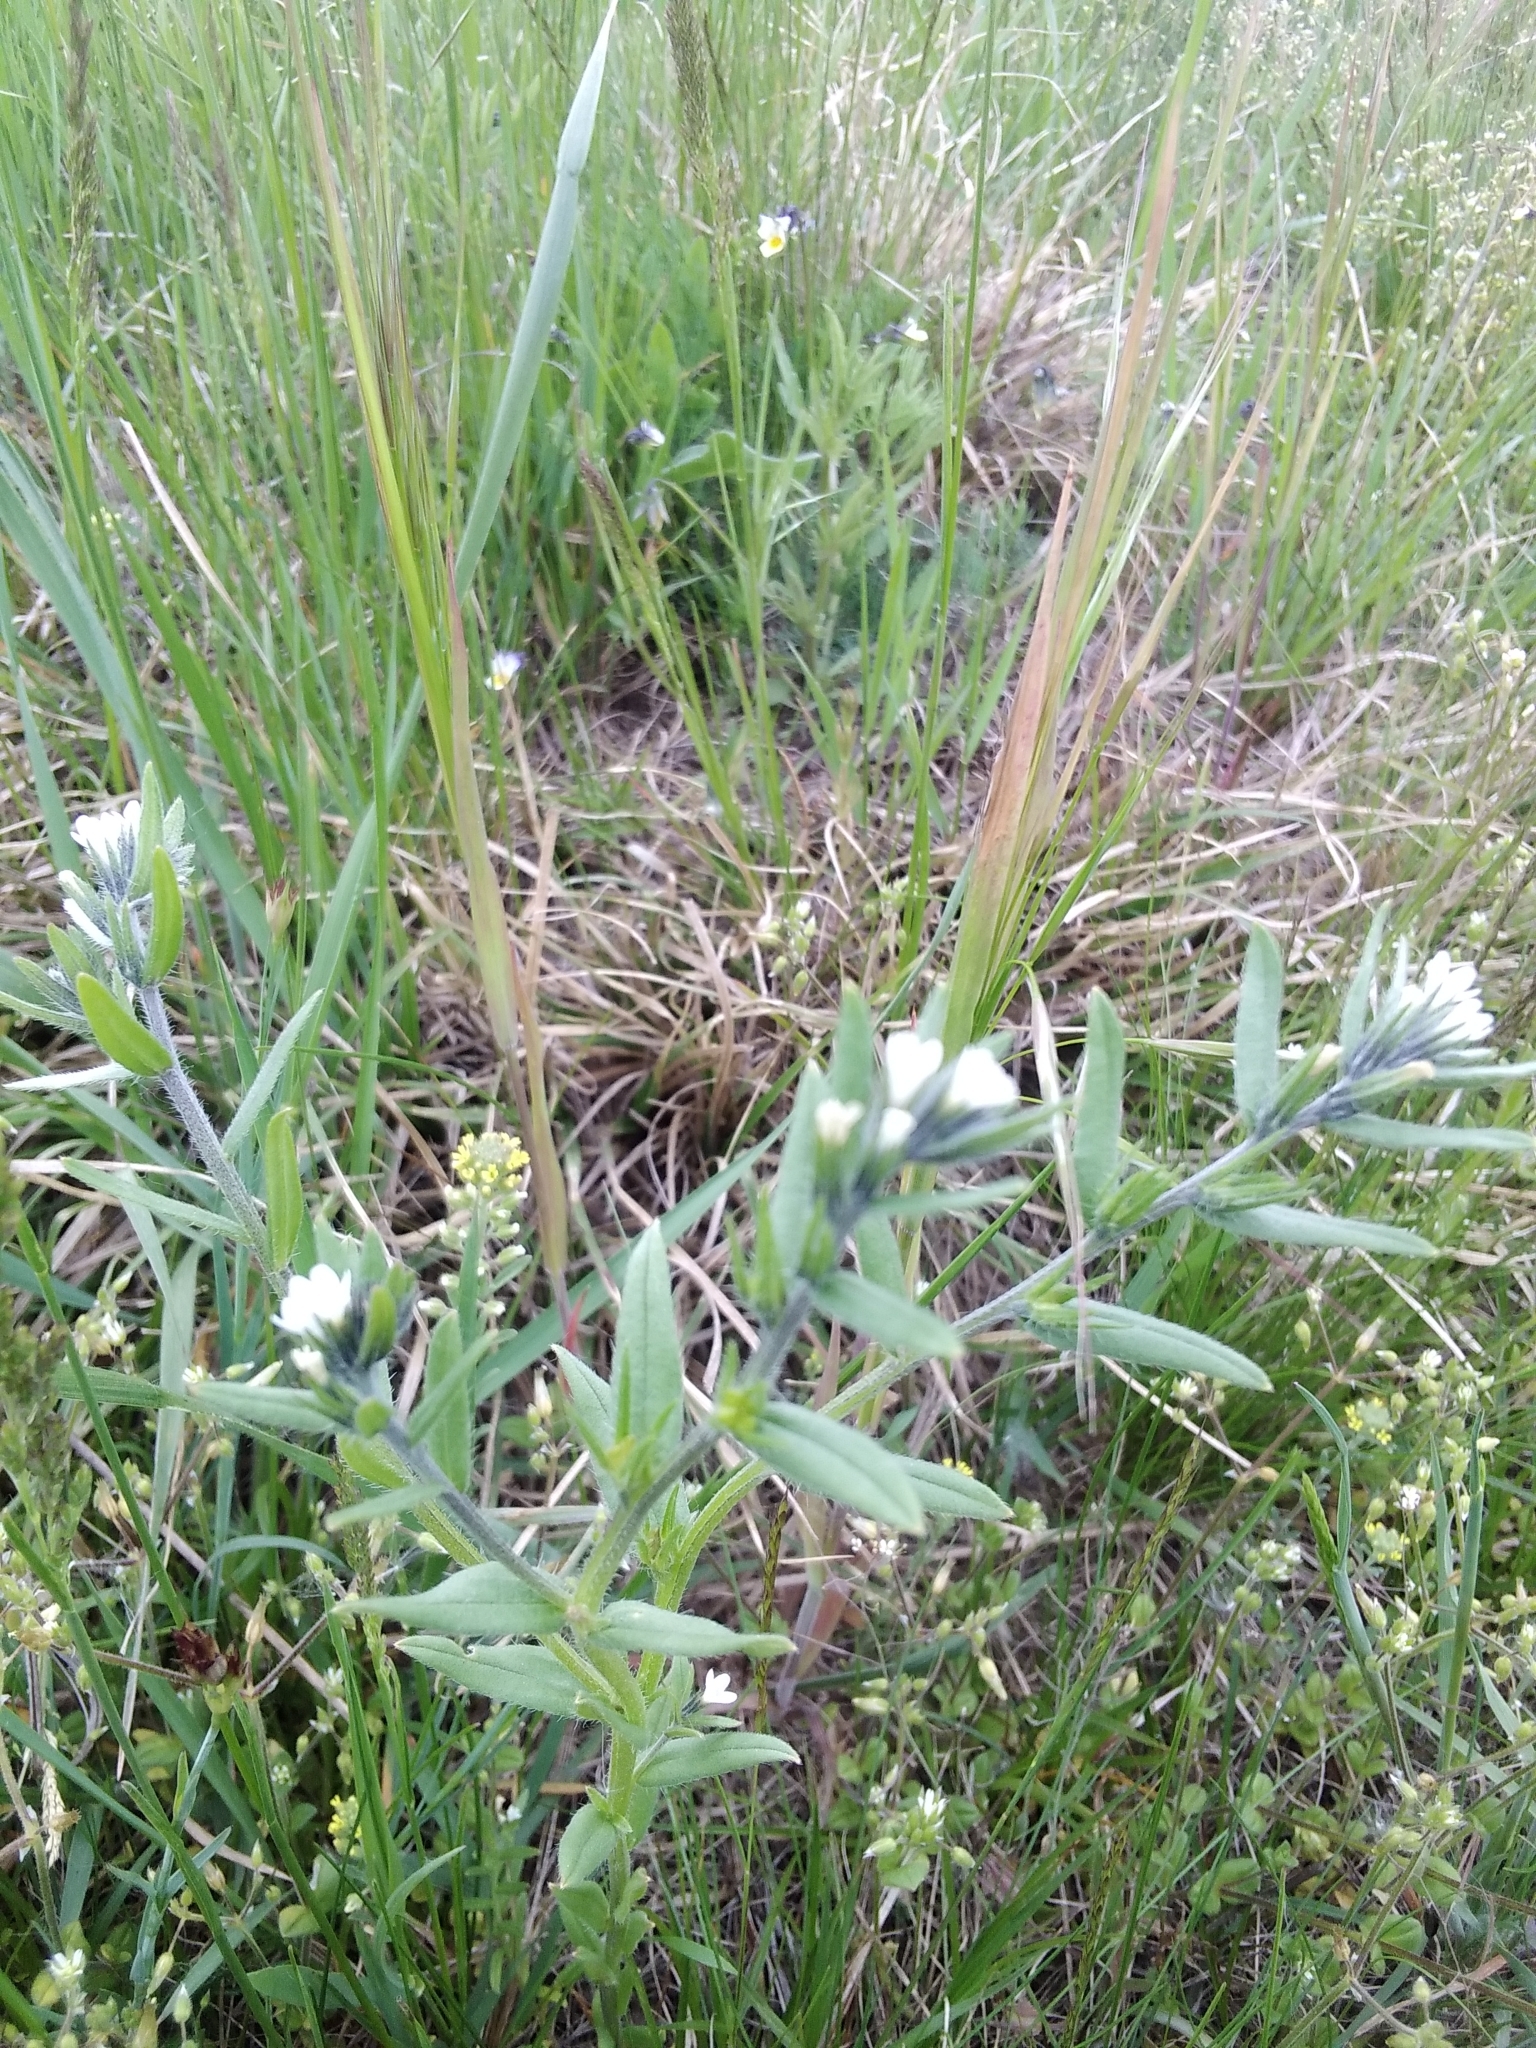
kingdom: Plantae
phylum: Tracheophyta
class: Magnoliopsida
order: Boraginales
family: Boraginaceae
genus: Buglossoides
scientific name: Buglossoides arvensis
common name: Corn gromwell
